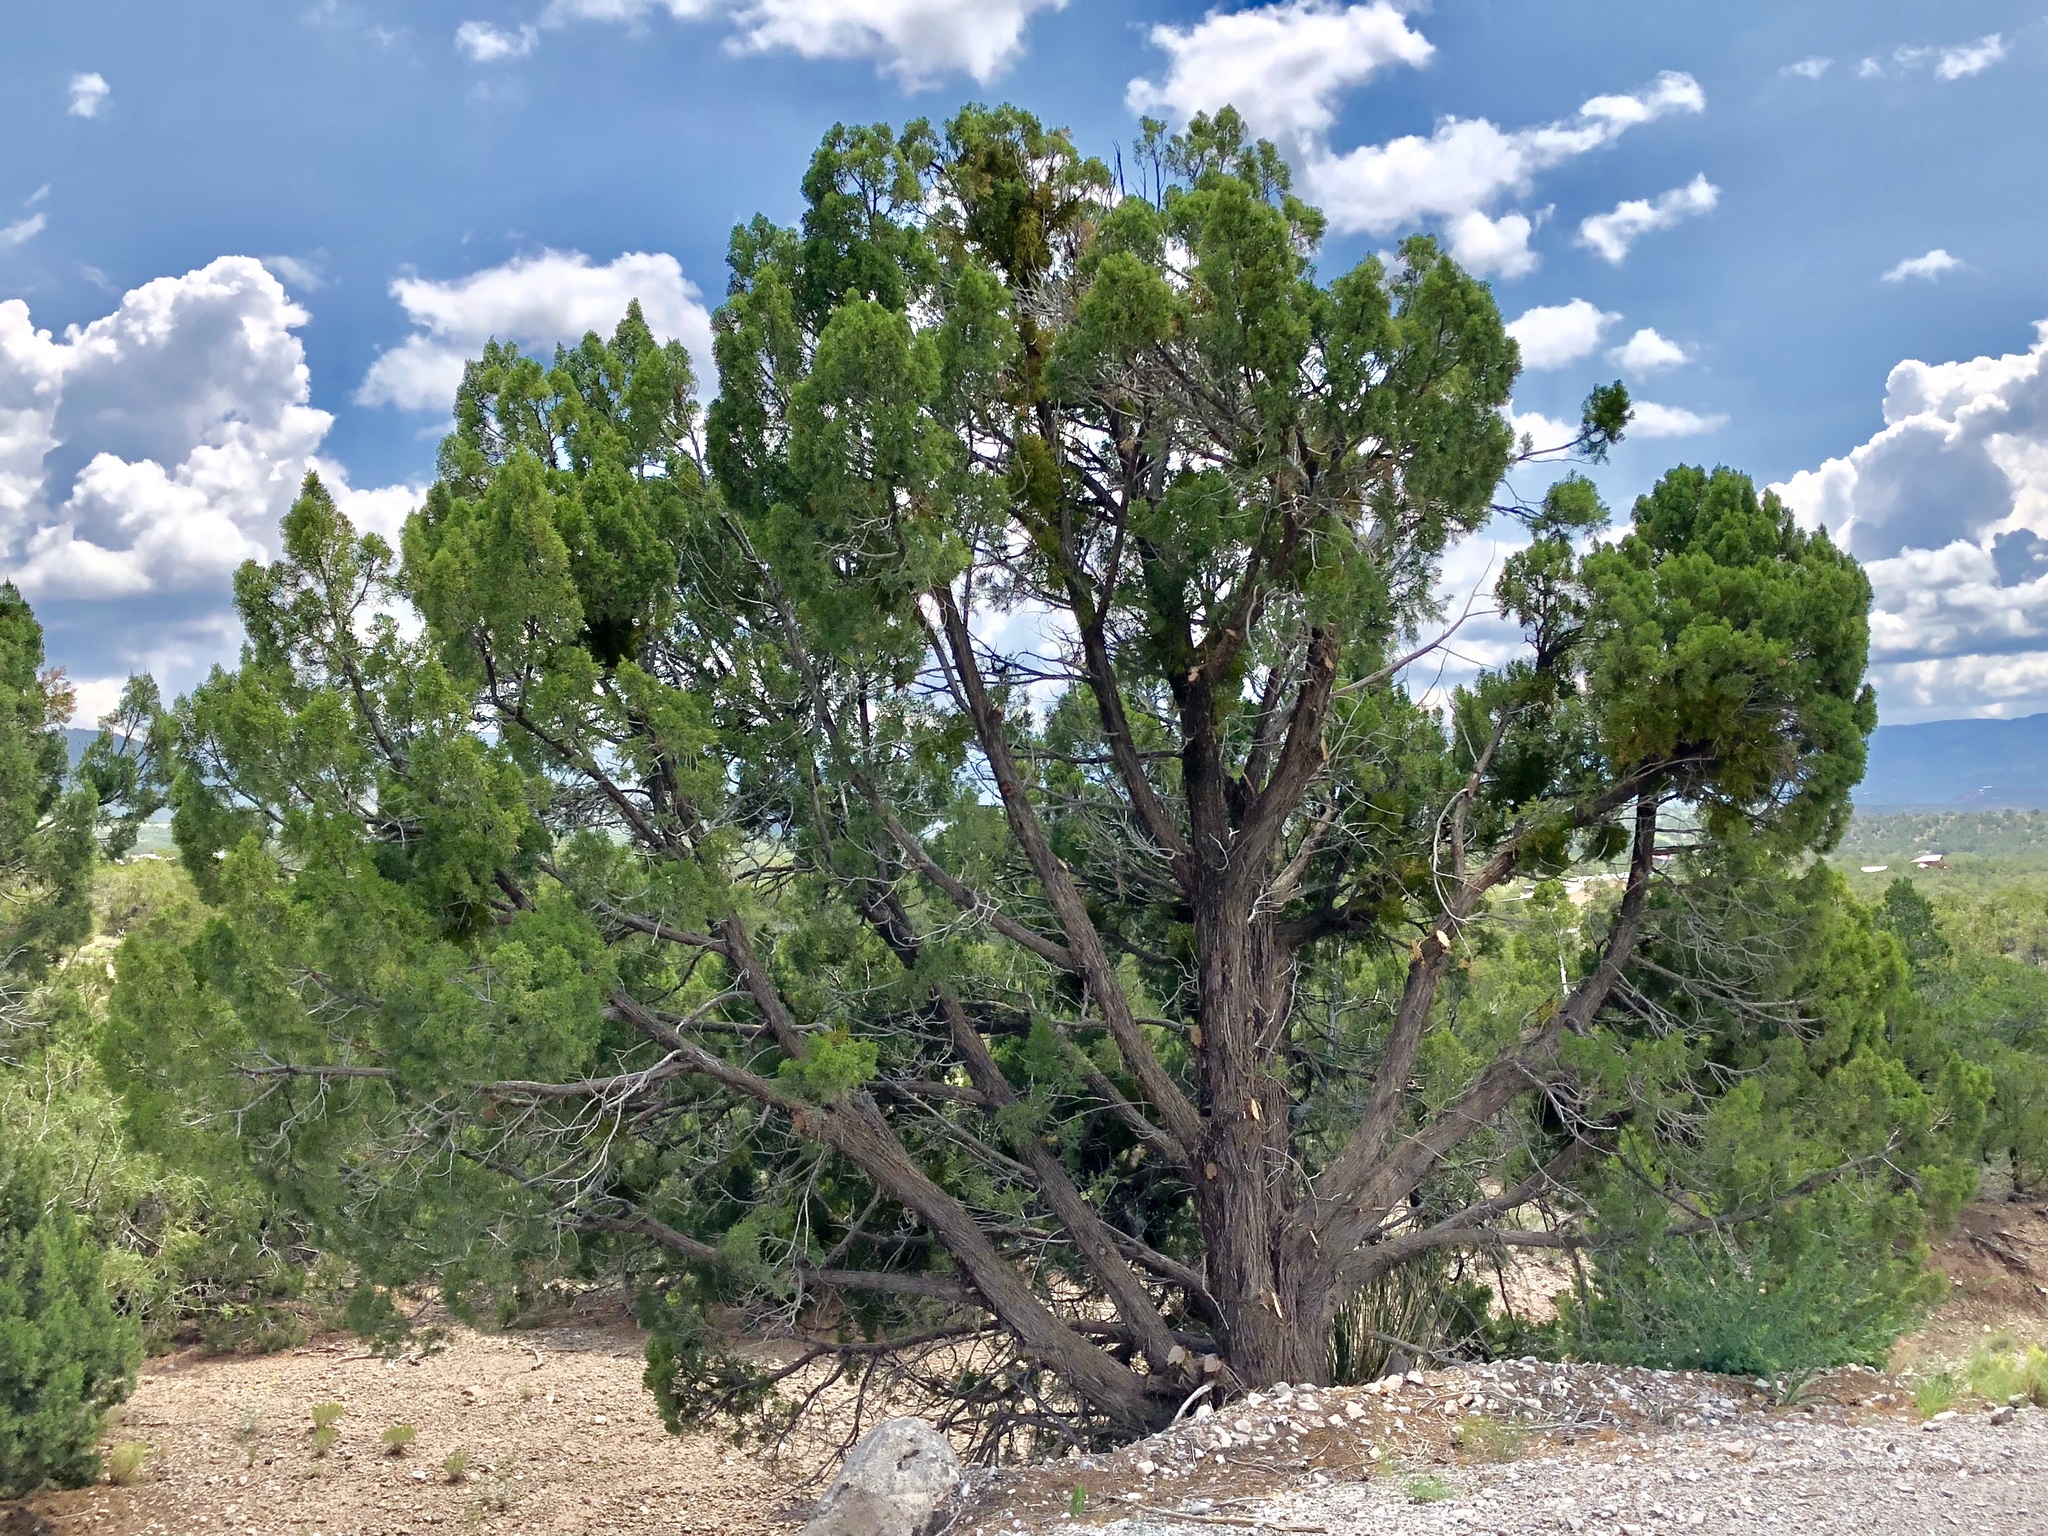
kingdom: Plantae
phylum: Tracheophyta
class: Pinopsida
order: Pinales
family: Cupressaceae
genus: Juniperus
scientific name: Juniperus monosperma
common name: One-seed juniper
